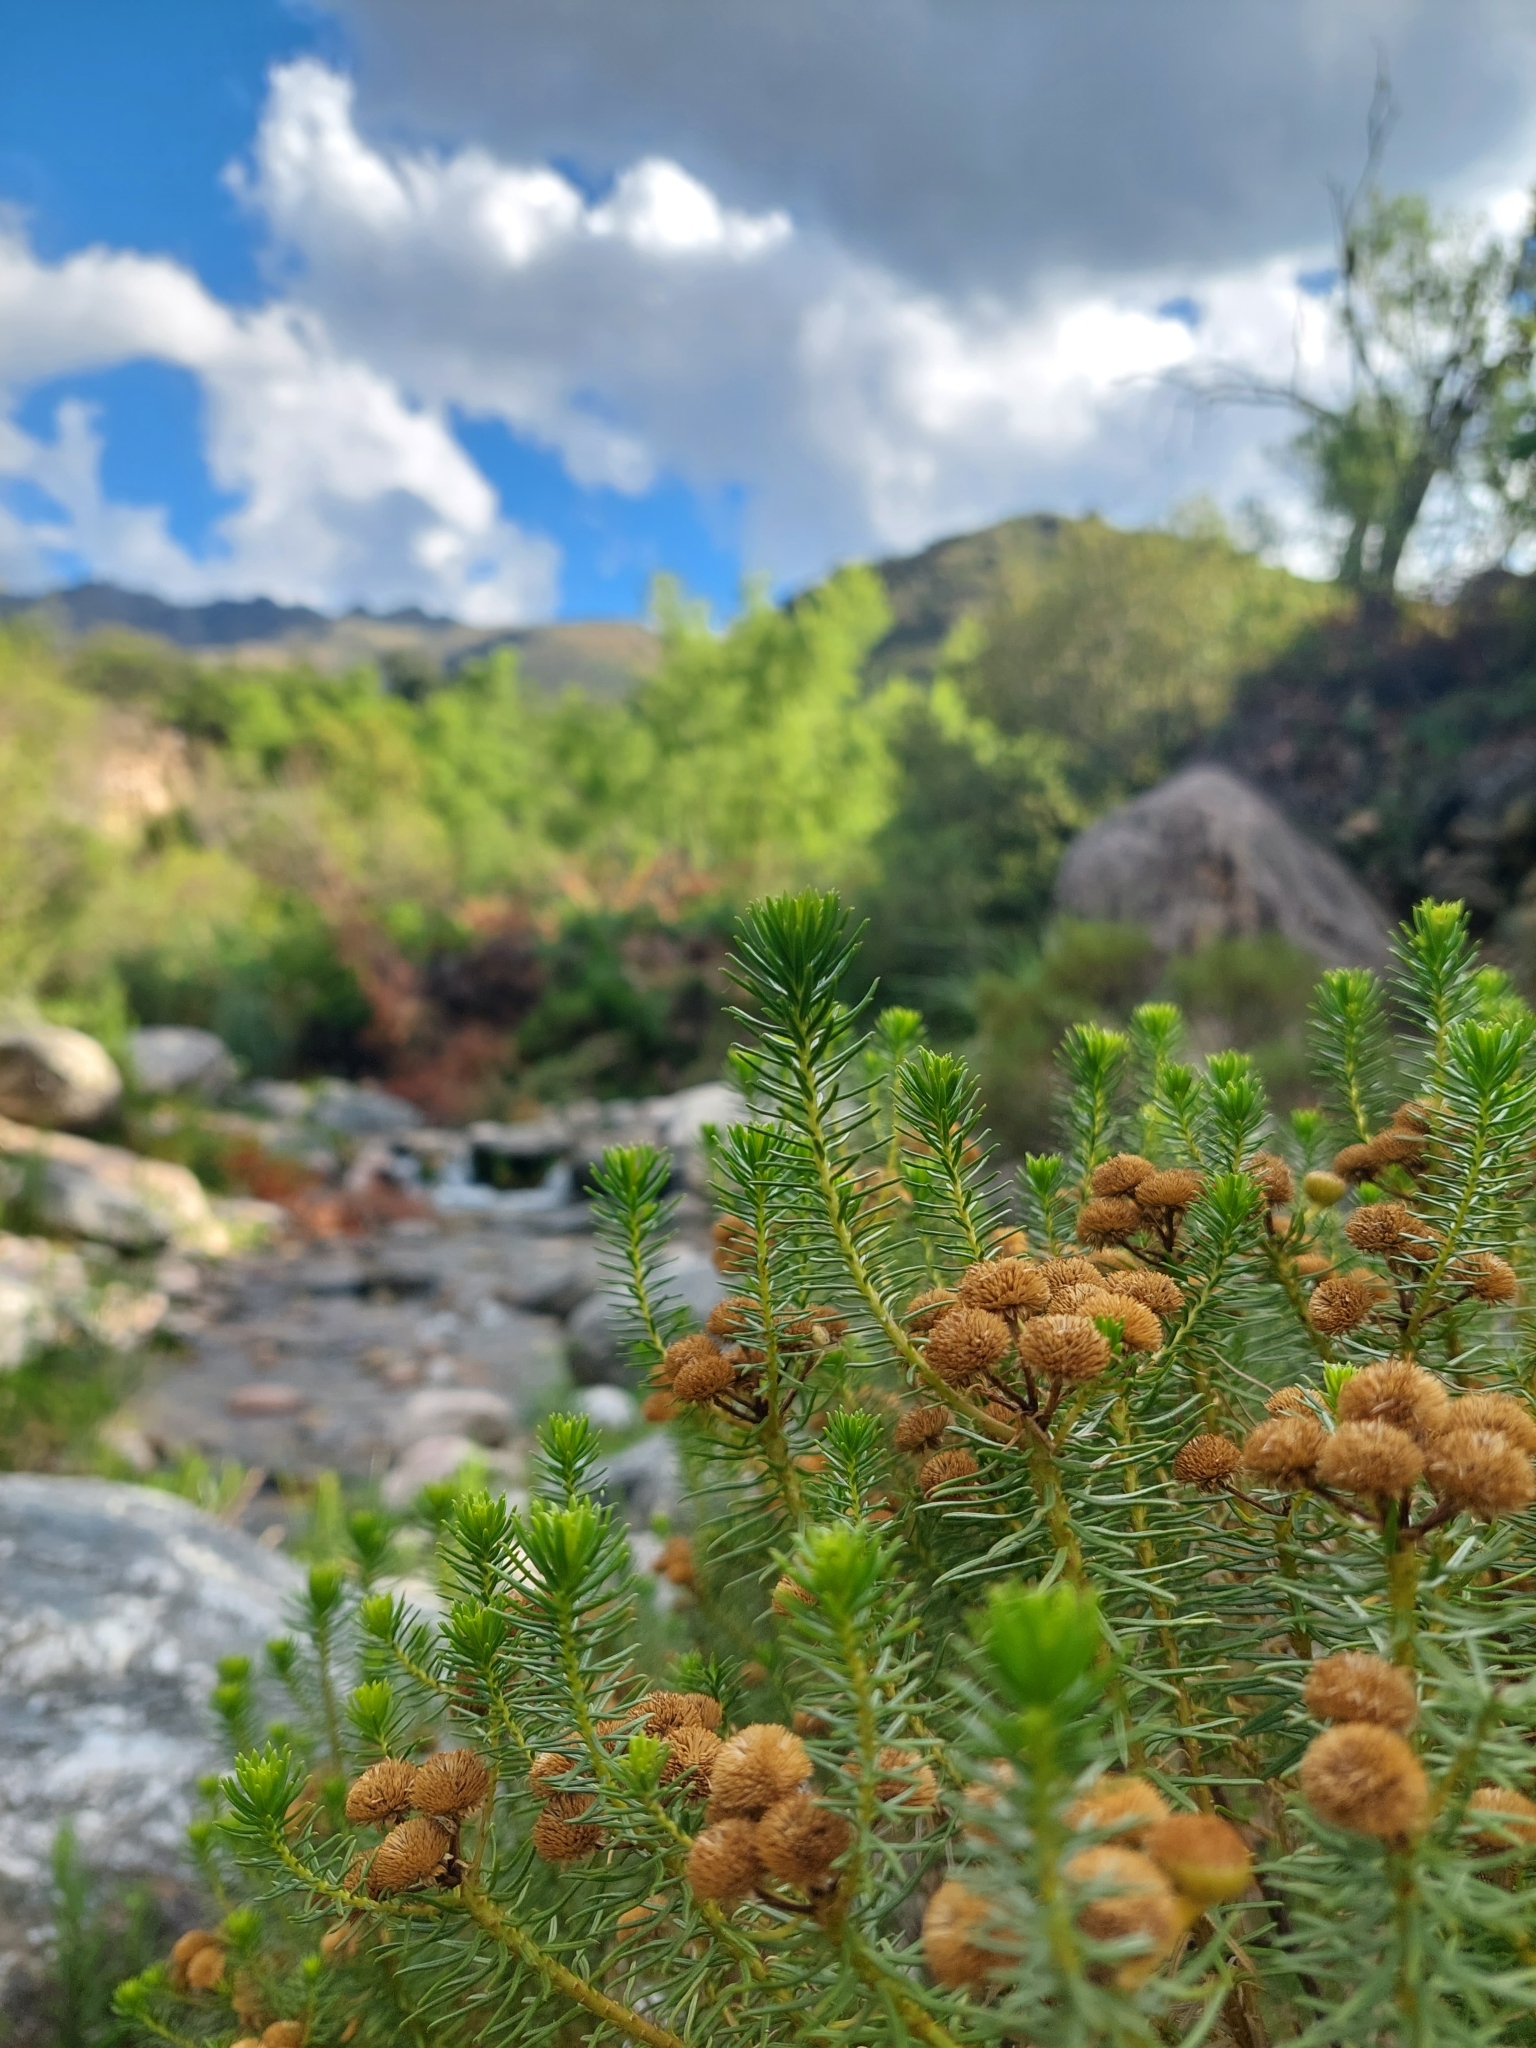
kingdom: Plantae
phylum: Tracheophyta
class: Magnoliopsida
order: Asterales
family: Asteraceae
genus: Baccharis
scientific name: Baccharis aliena
